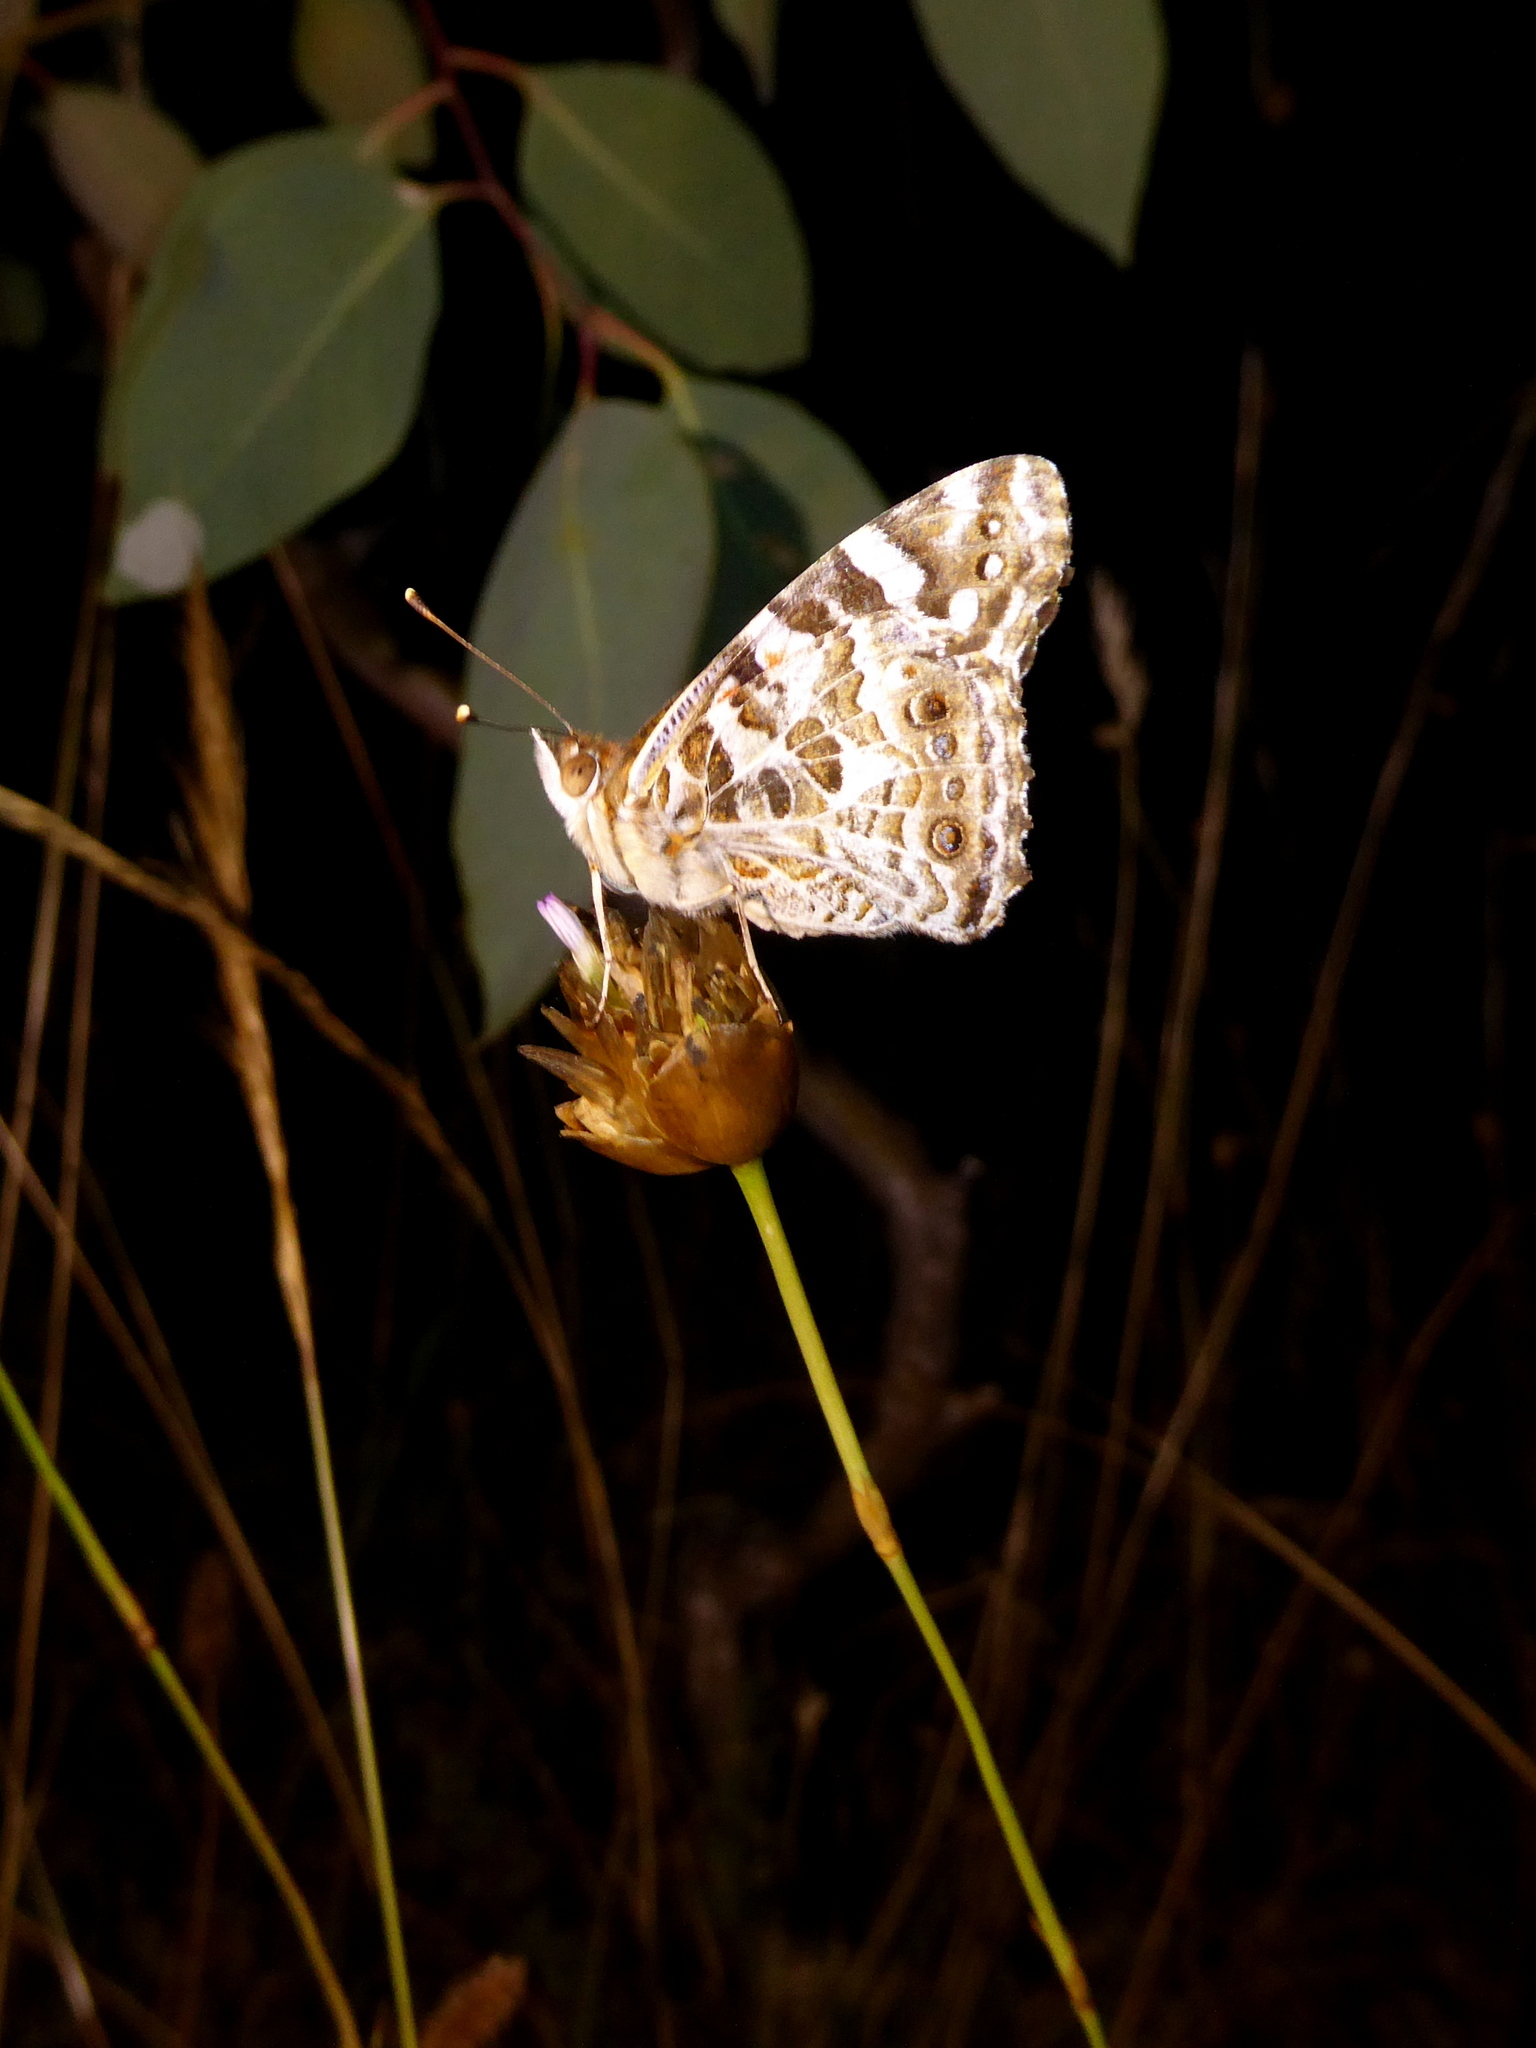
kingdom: Animalia
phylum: Arthropoda
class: Insecta
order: Lepidoptera
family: Nymphalidae
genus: Vanessa
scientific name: Vanessa kershawi
